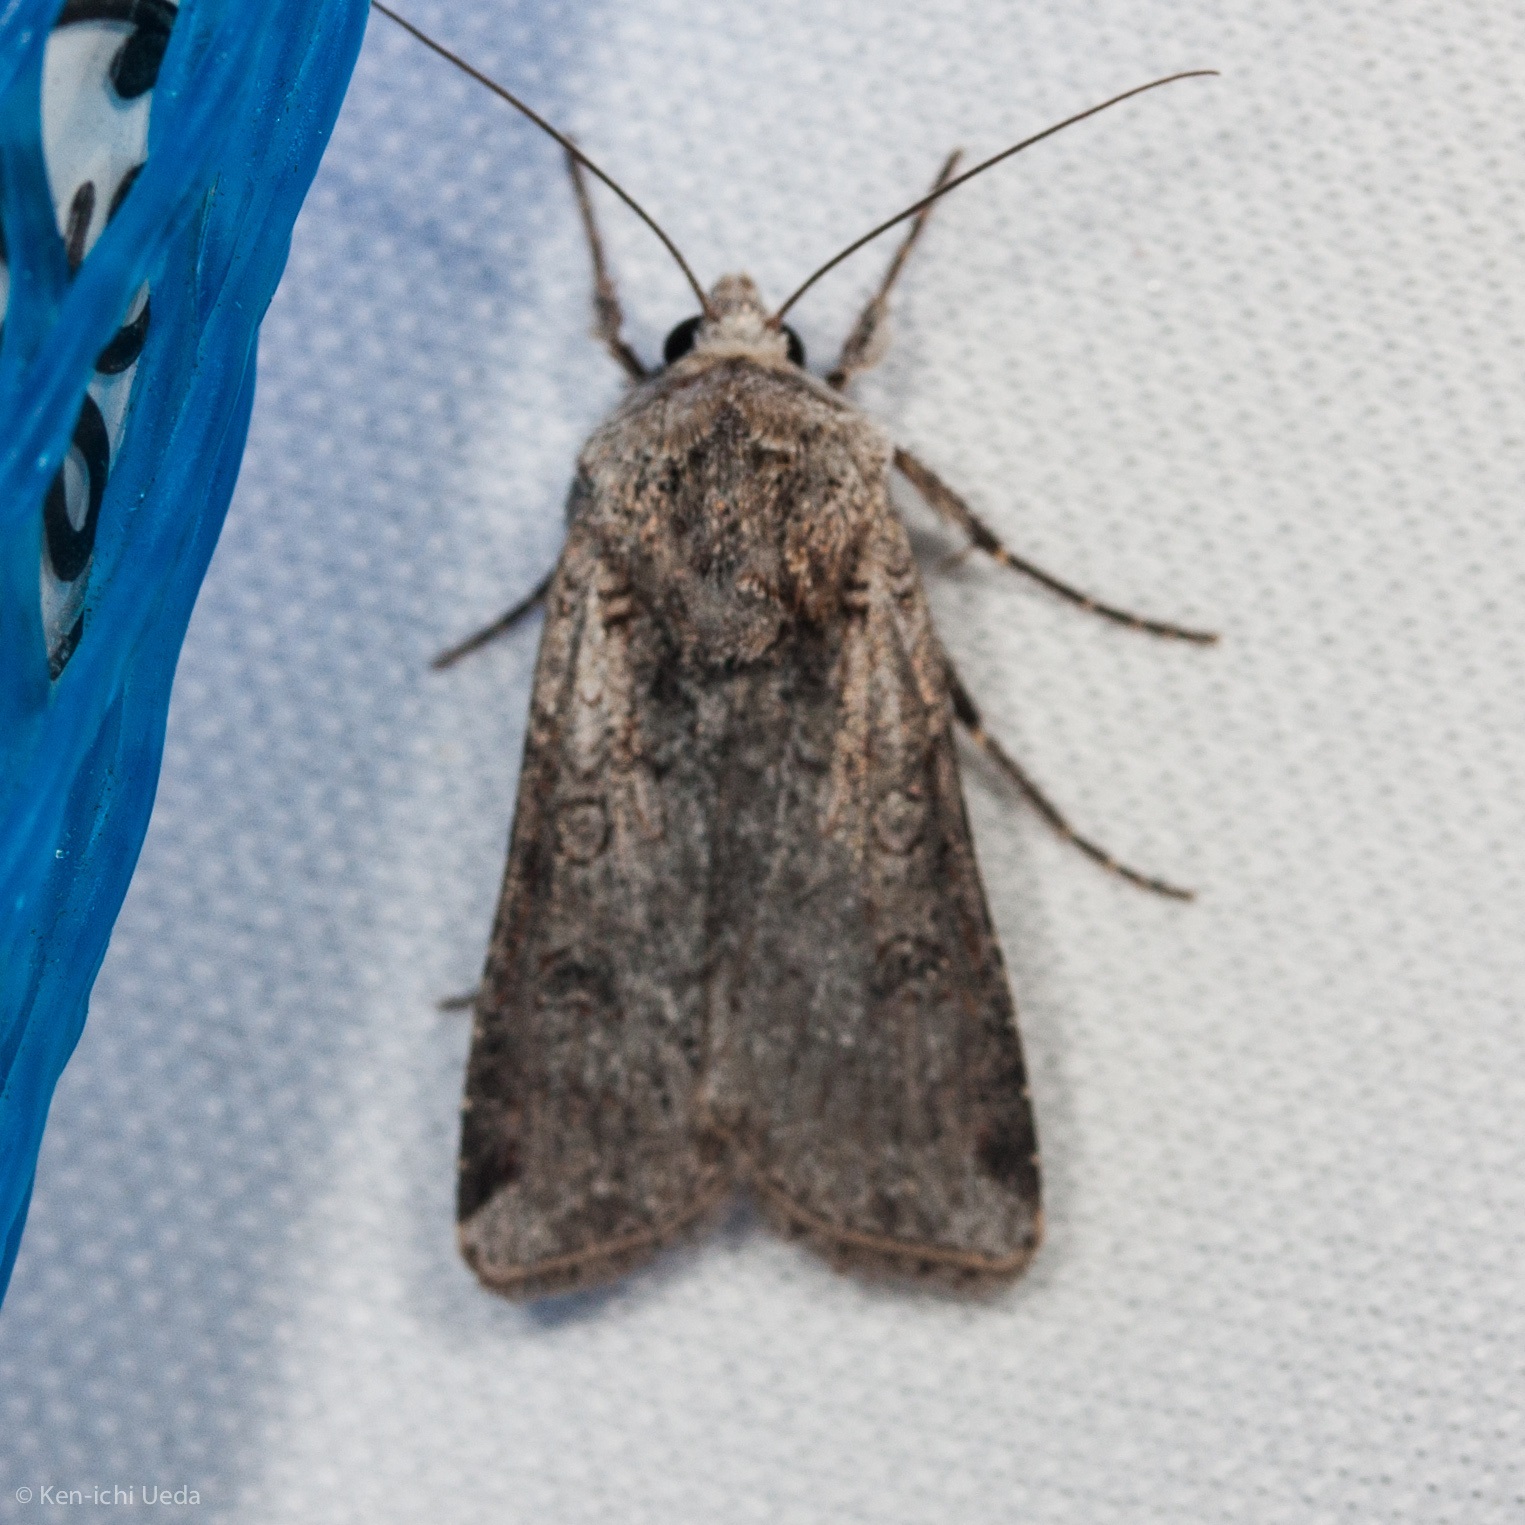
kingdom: Animalia
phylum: Arthropoda
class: Insecta
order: Lepidoptera
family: Noctuidae
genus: Hemieuxoa
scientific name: Hemieuxoa rudens
